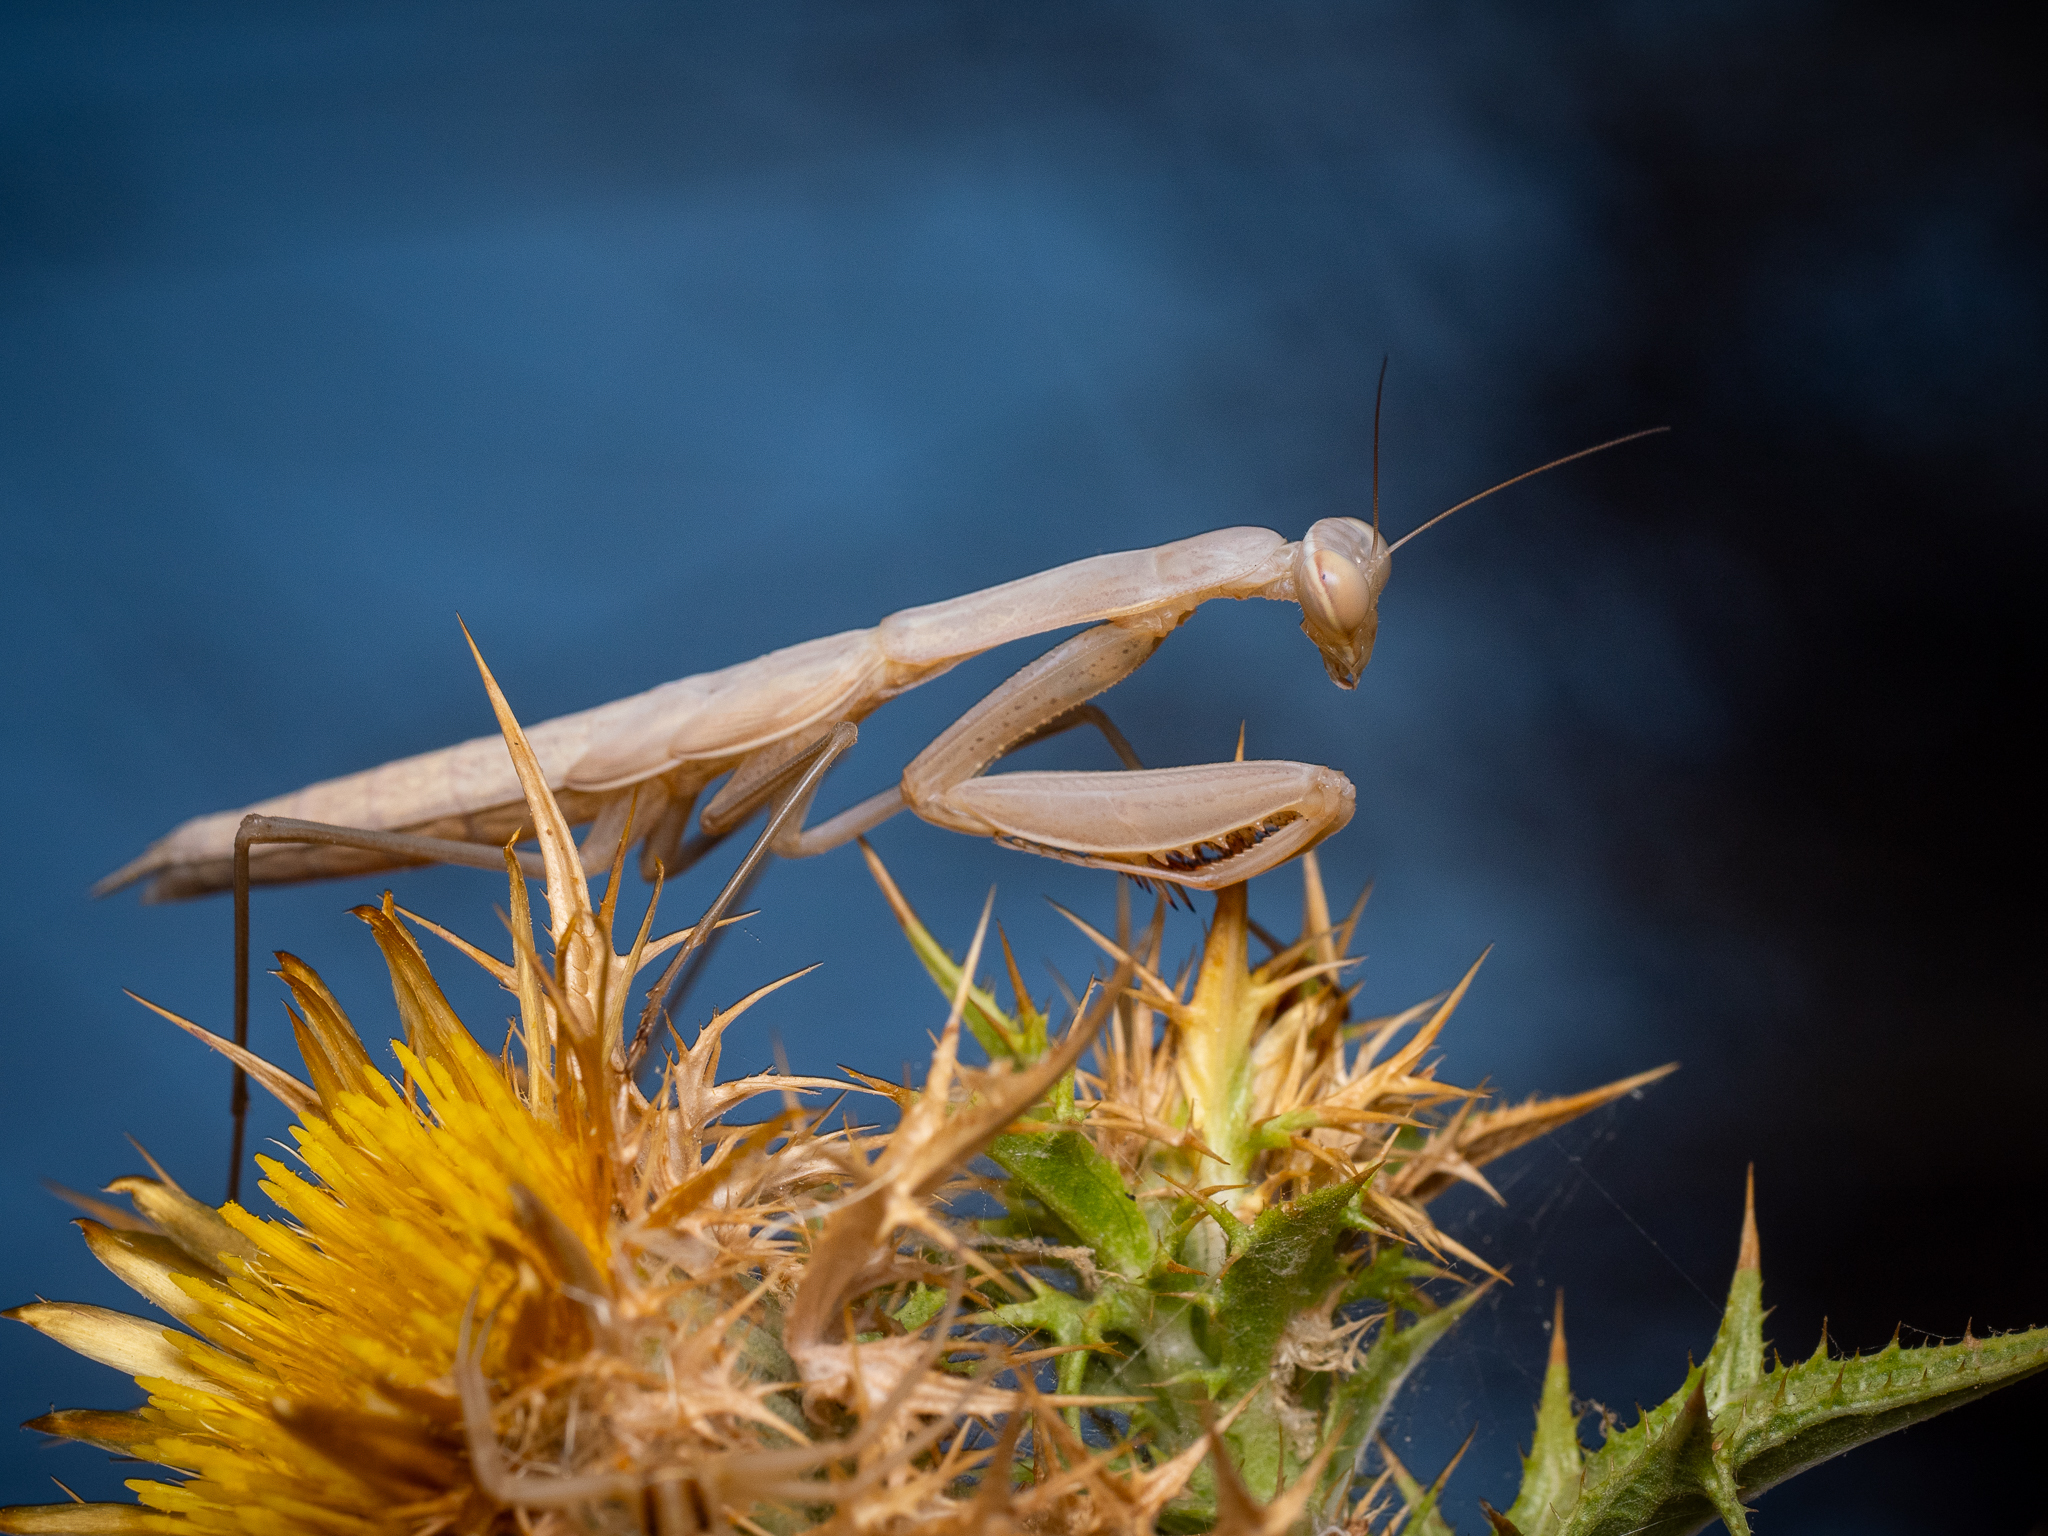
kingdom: Animalia
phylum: Arthropoda
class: Insecta
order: Mantodea
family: Mantidae
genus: Mantis
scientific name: Mantis religiosa
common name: Praying mantis
